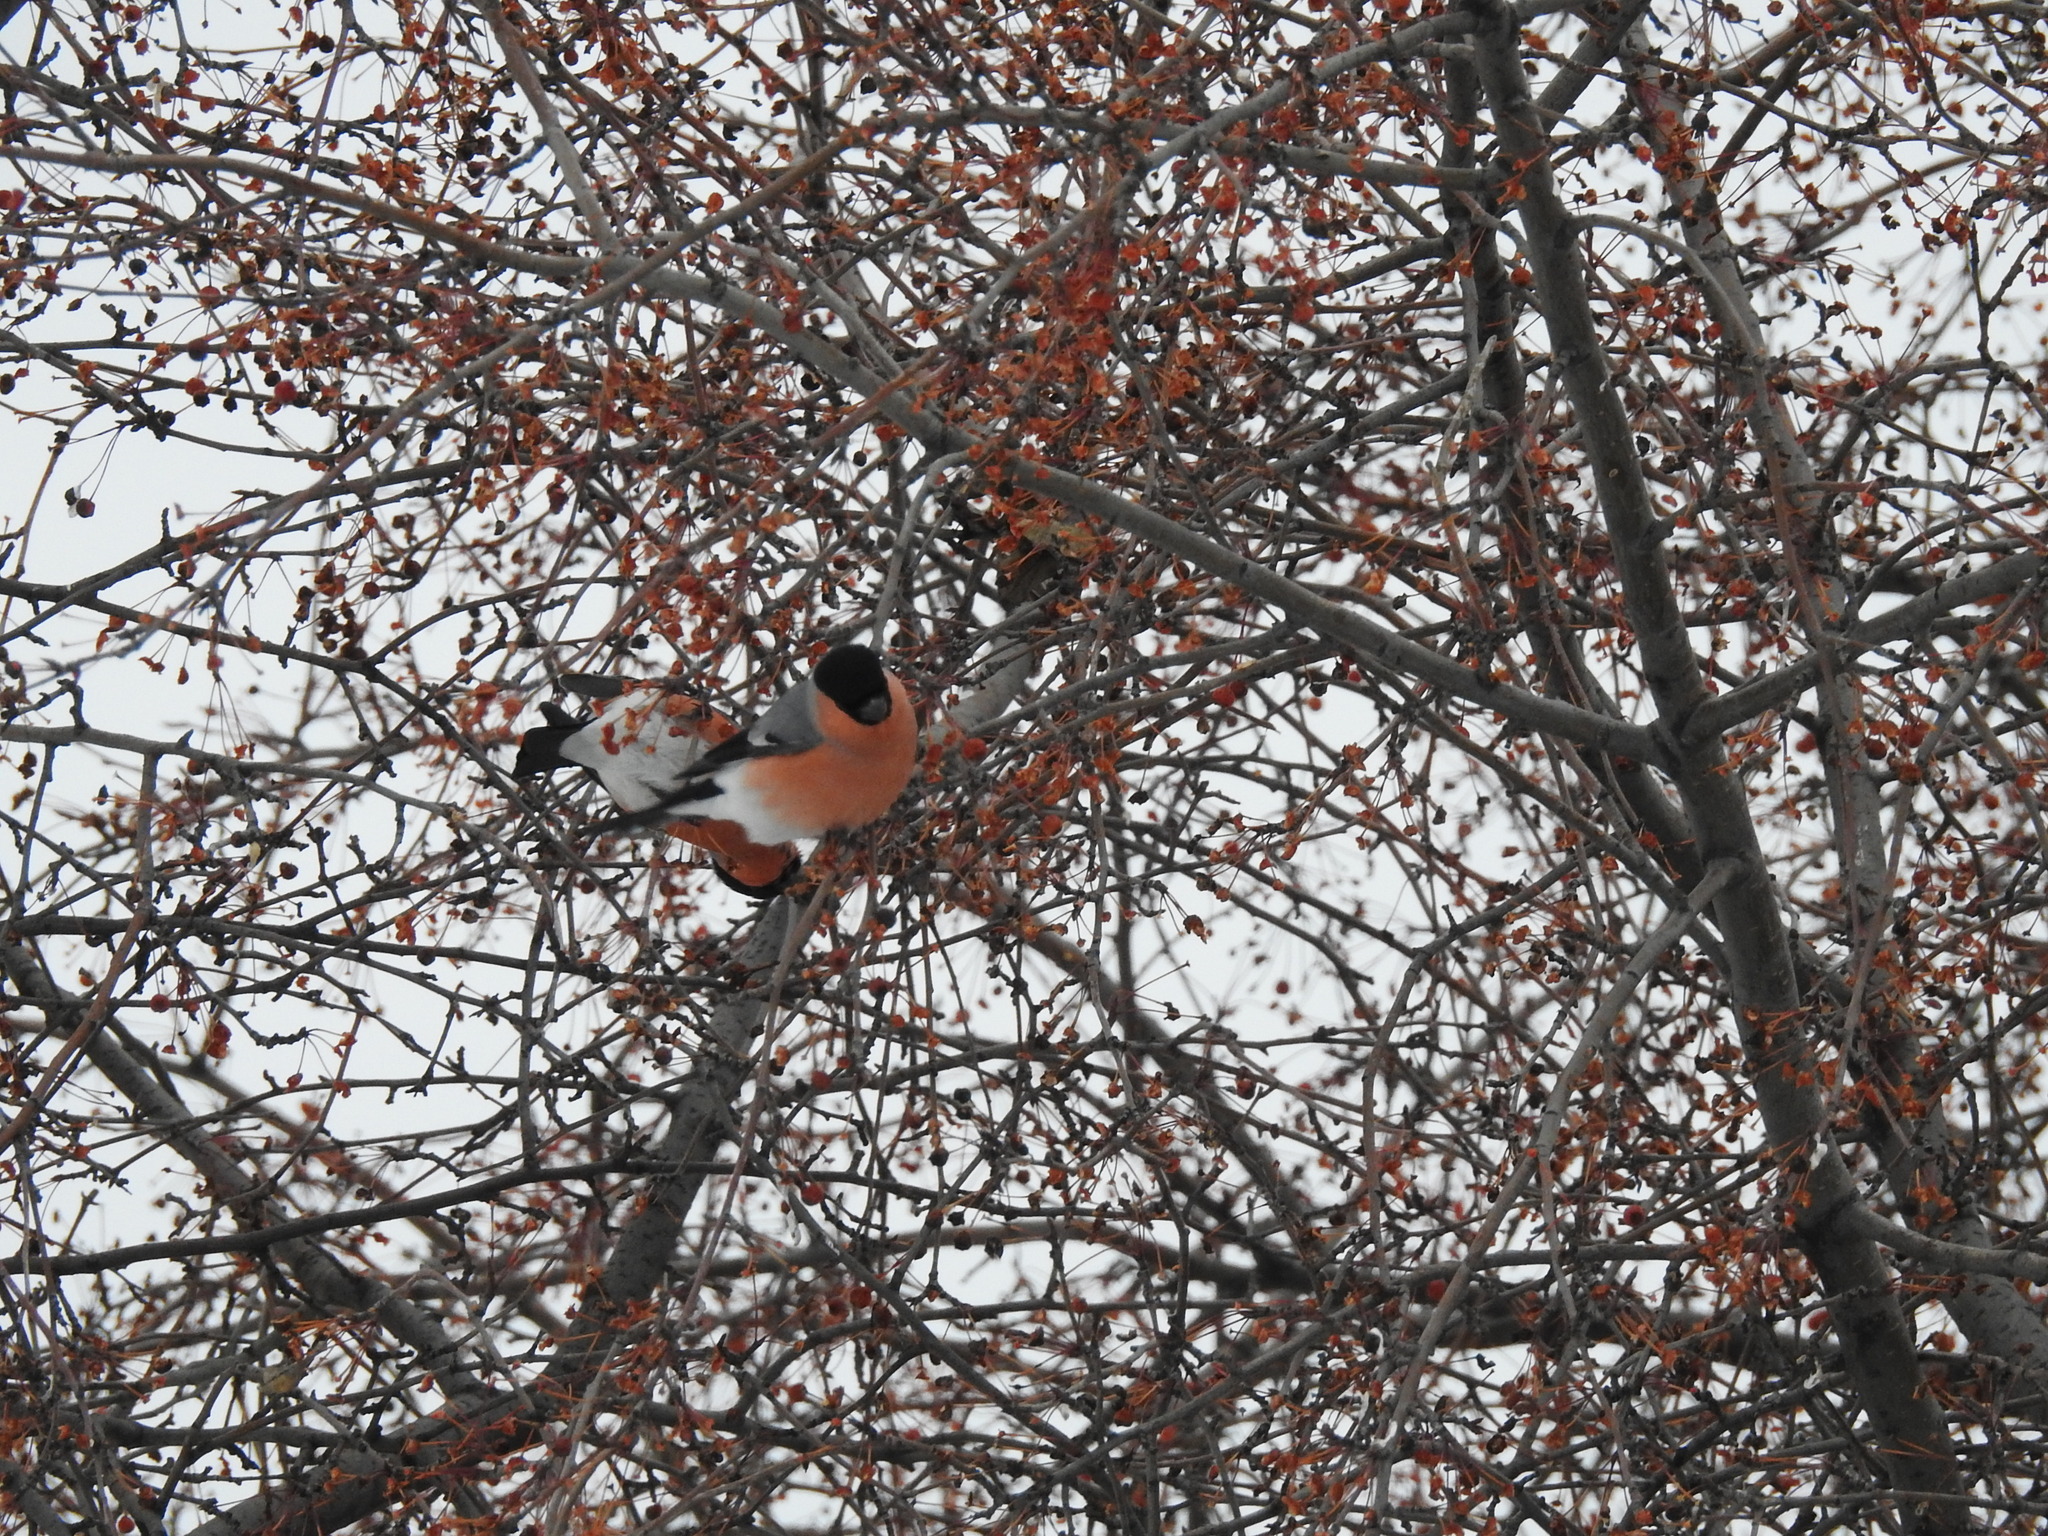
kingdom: Animalia
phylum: Chordata
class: Aves
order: Passeriformes
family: Fringillidae
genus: Pyrrhula
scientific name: Pyrrhula pyrrhula
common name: Eurasian bullfinch
